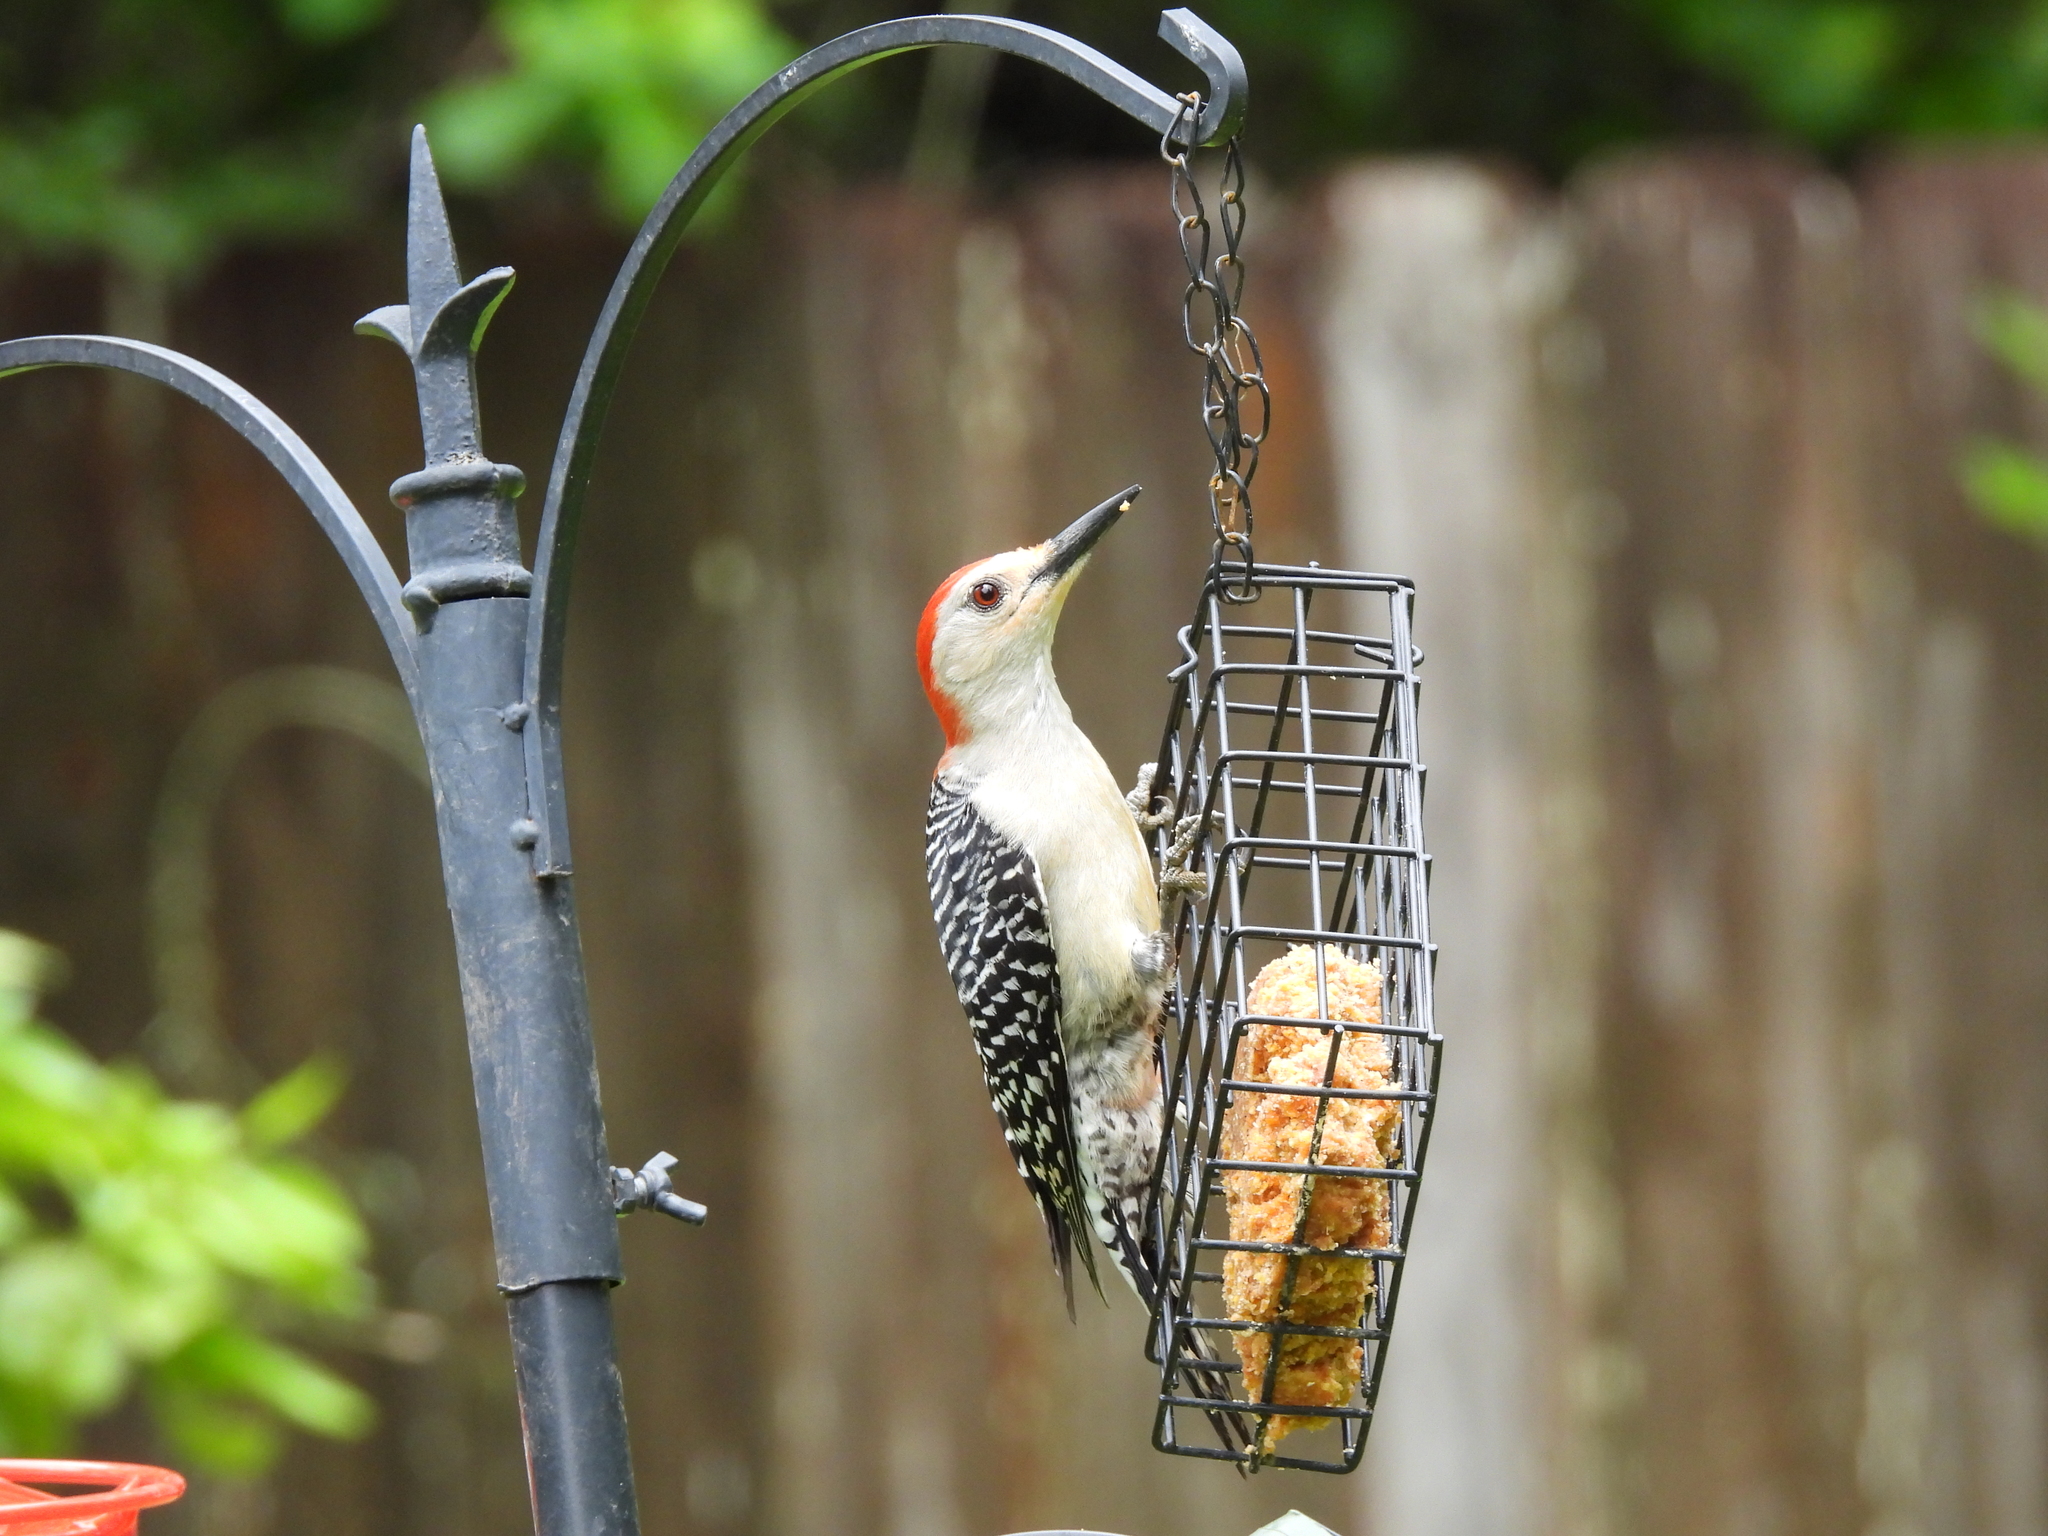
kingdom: Animalia
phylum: Chordata
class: Aves
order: Piciformes
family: Picidae
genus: Melanerpes
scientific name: Melanerpes carolinus
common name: Red-bellied woodpecker
